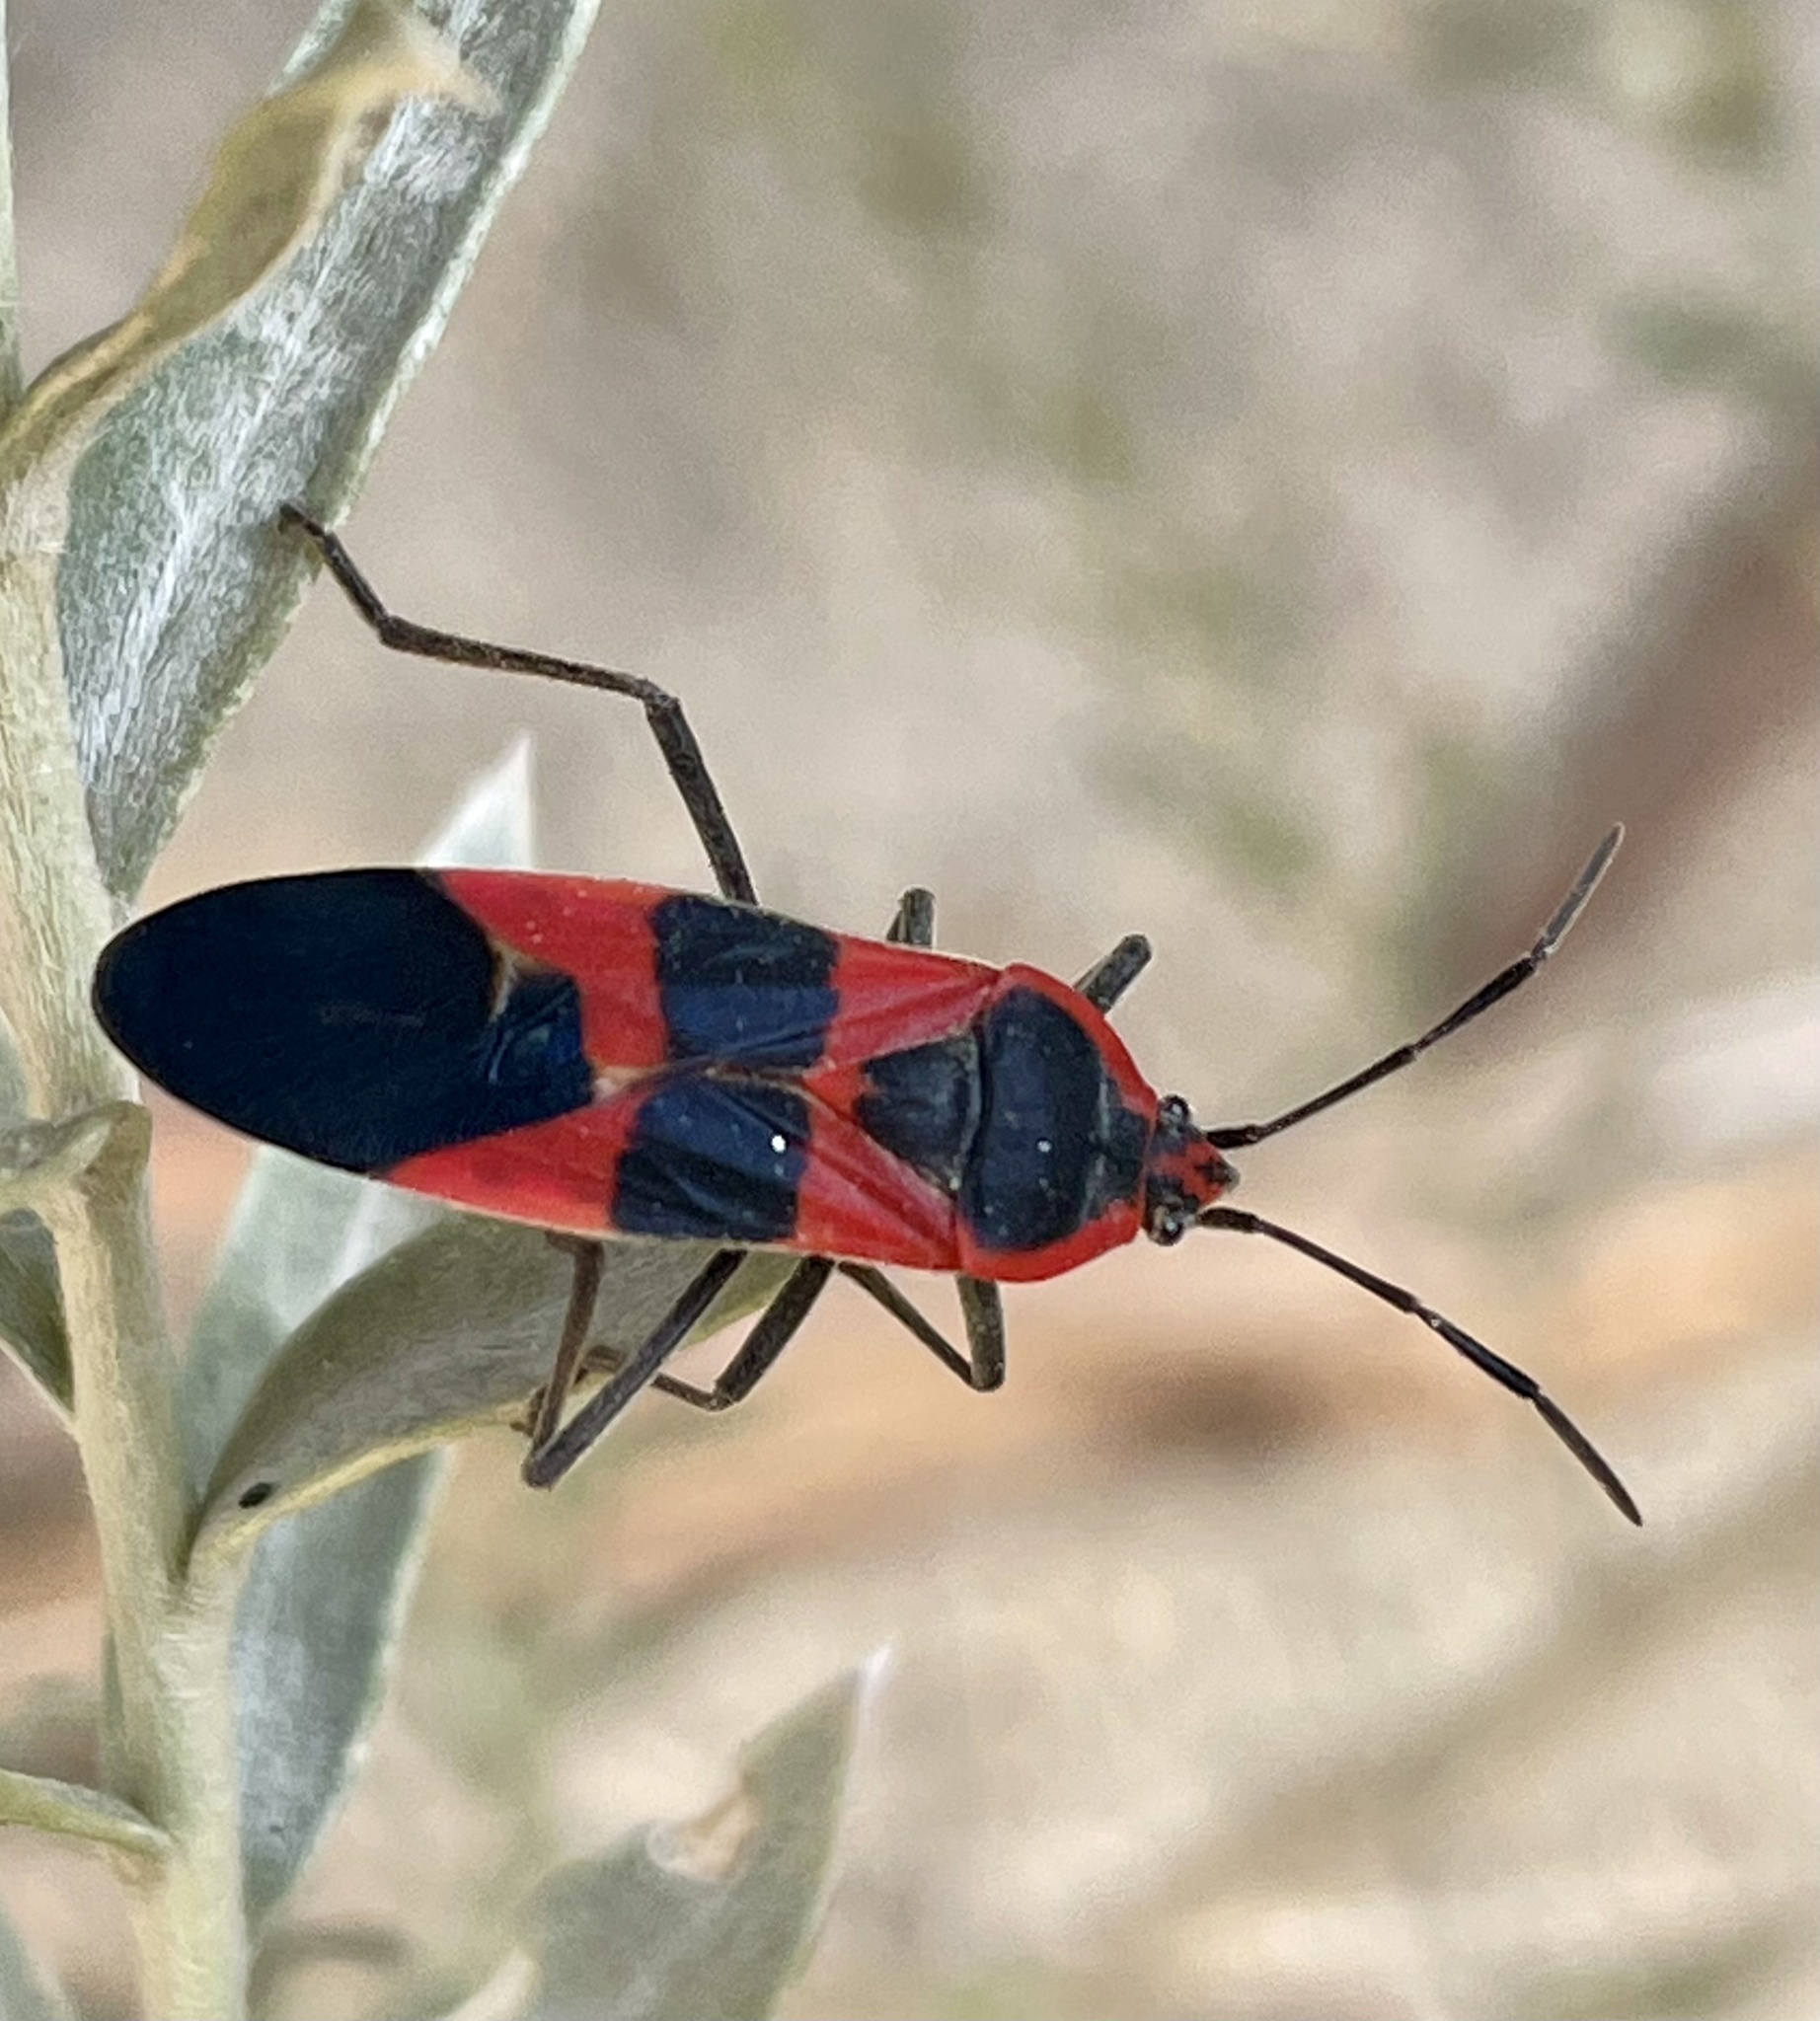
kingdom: Animalia
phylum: Arthropoda
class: Insecta
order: Hemiptera
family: Lygaeidae
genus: Oncopeltus
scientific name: Oncopeltus fasciatus
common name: Large milkweed bug
